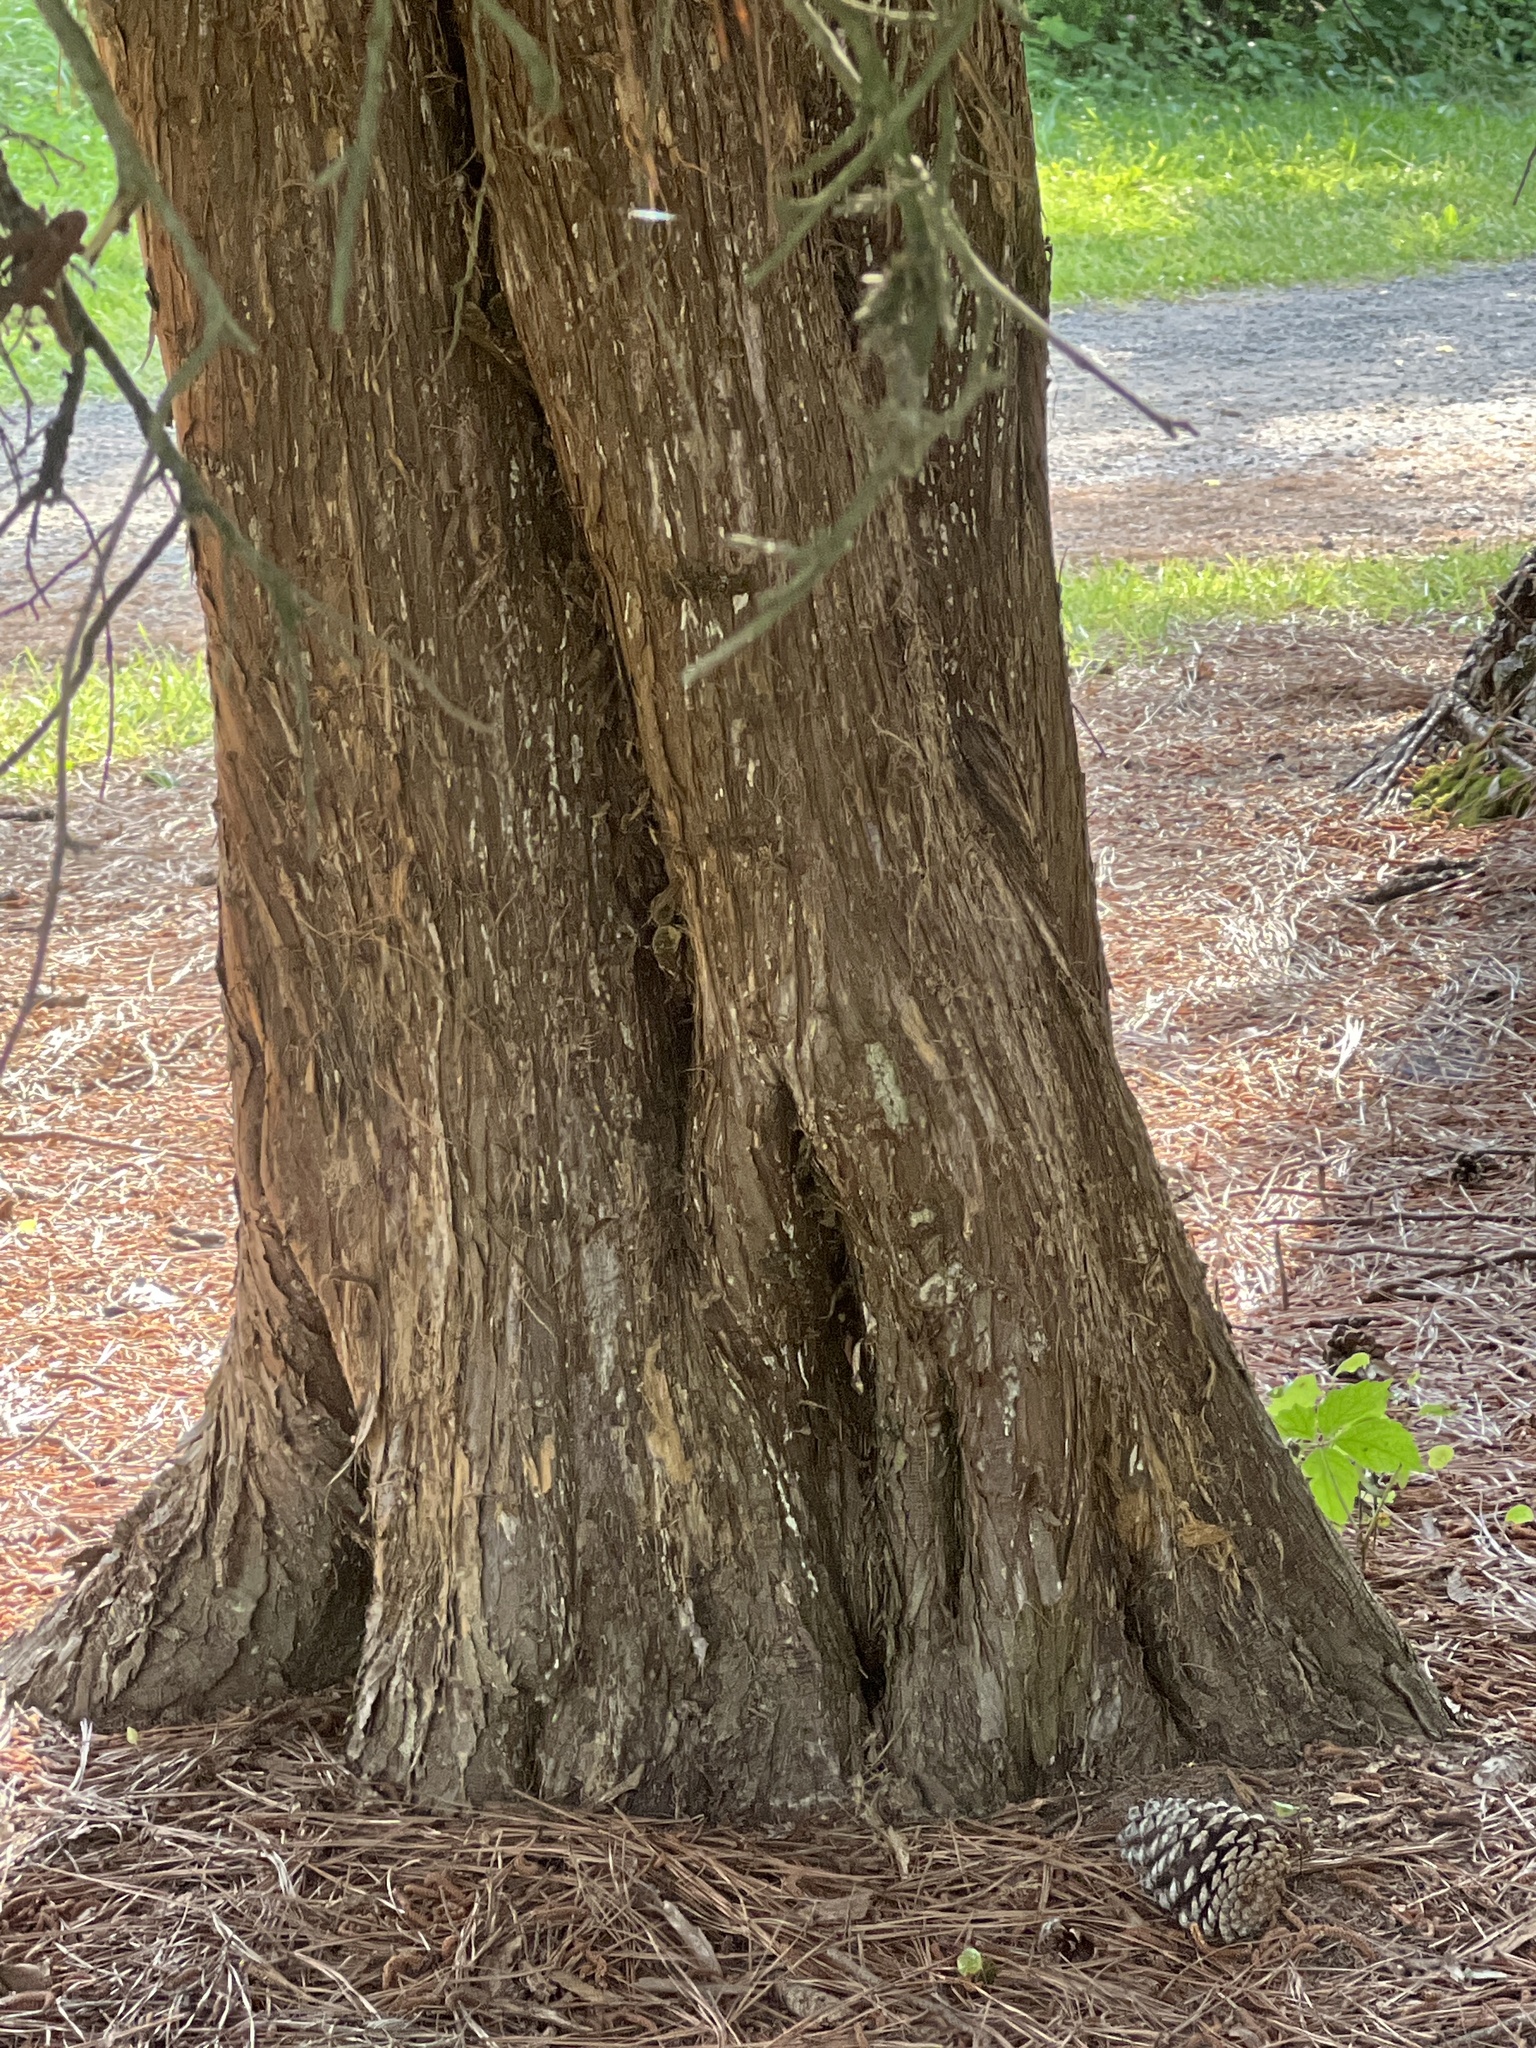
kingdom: Plantae
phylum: Tracheophyta
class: Pinopsida
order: Pinales
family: Cupressaceae
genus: Juniperus
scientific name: Juniperus virginiana
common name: Red juniper
